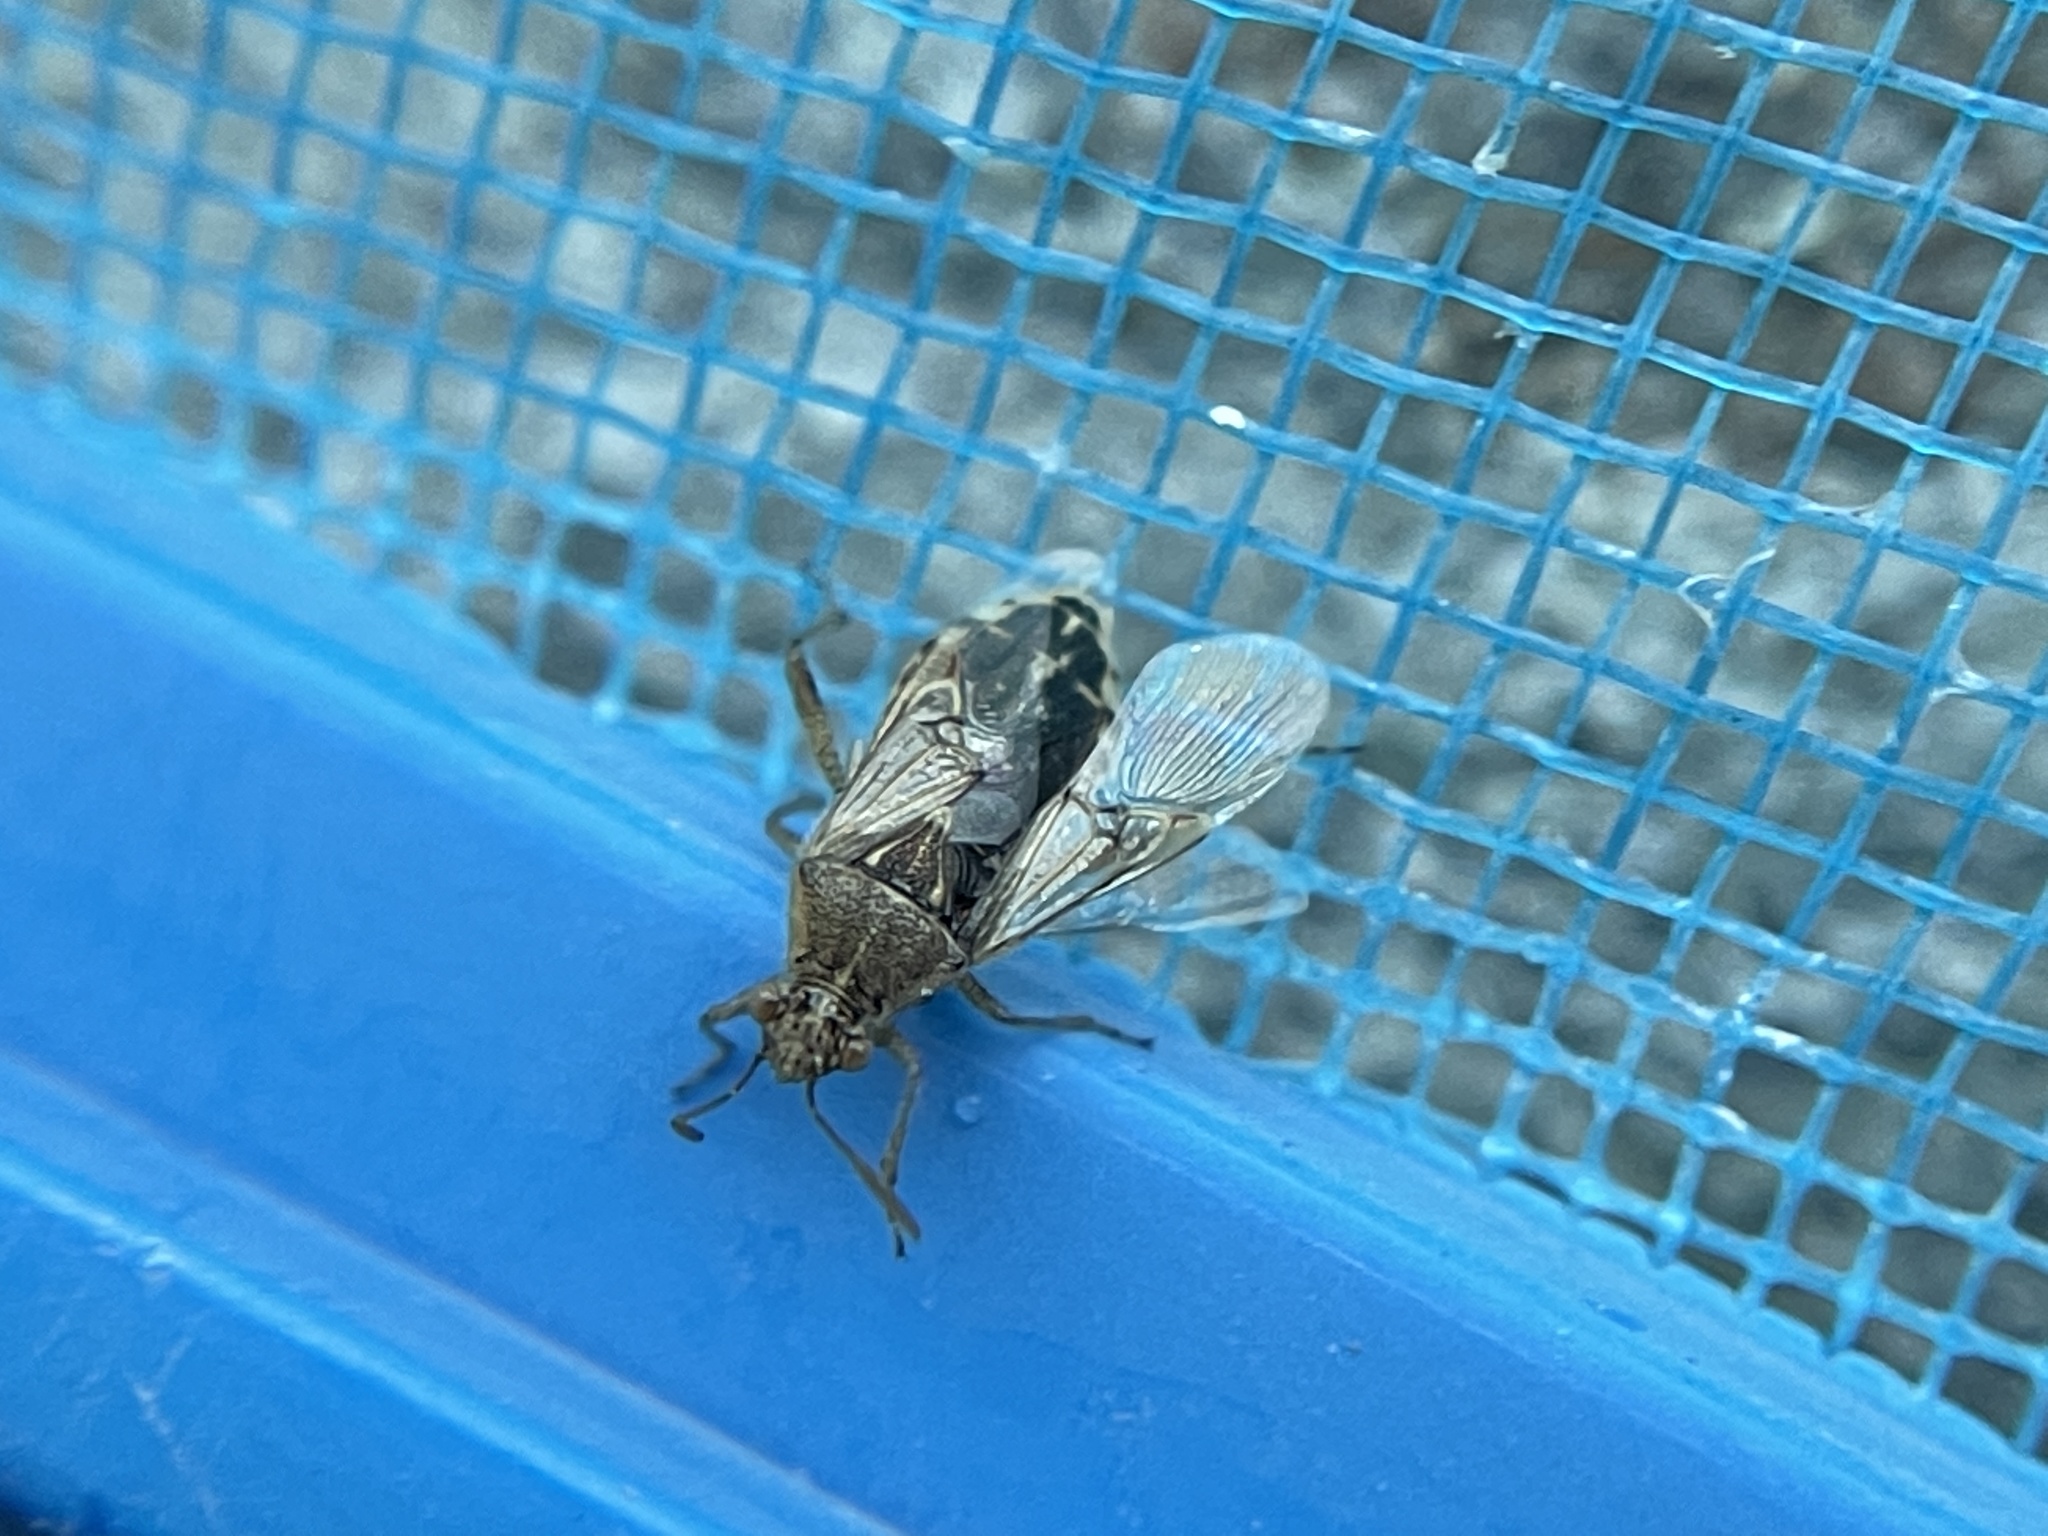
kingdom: Animalia
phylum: Arthropoda
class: Insecta
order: Hemiptera
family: Rhopalidae
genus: Liorhyssus
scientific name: Liorhyssus hyalinus
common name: Scentless plant bug
